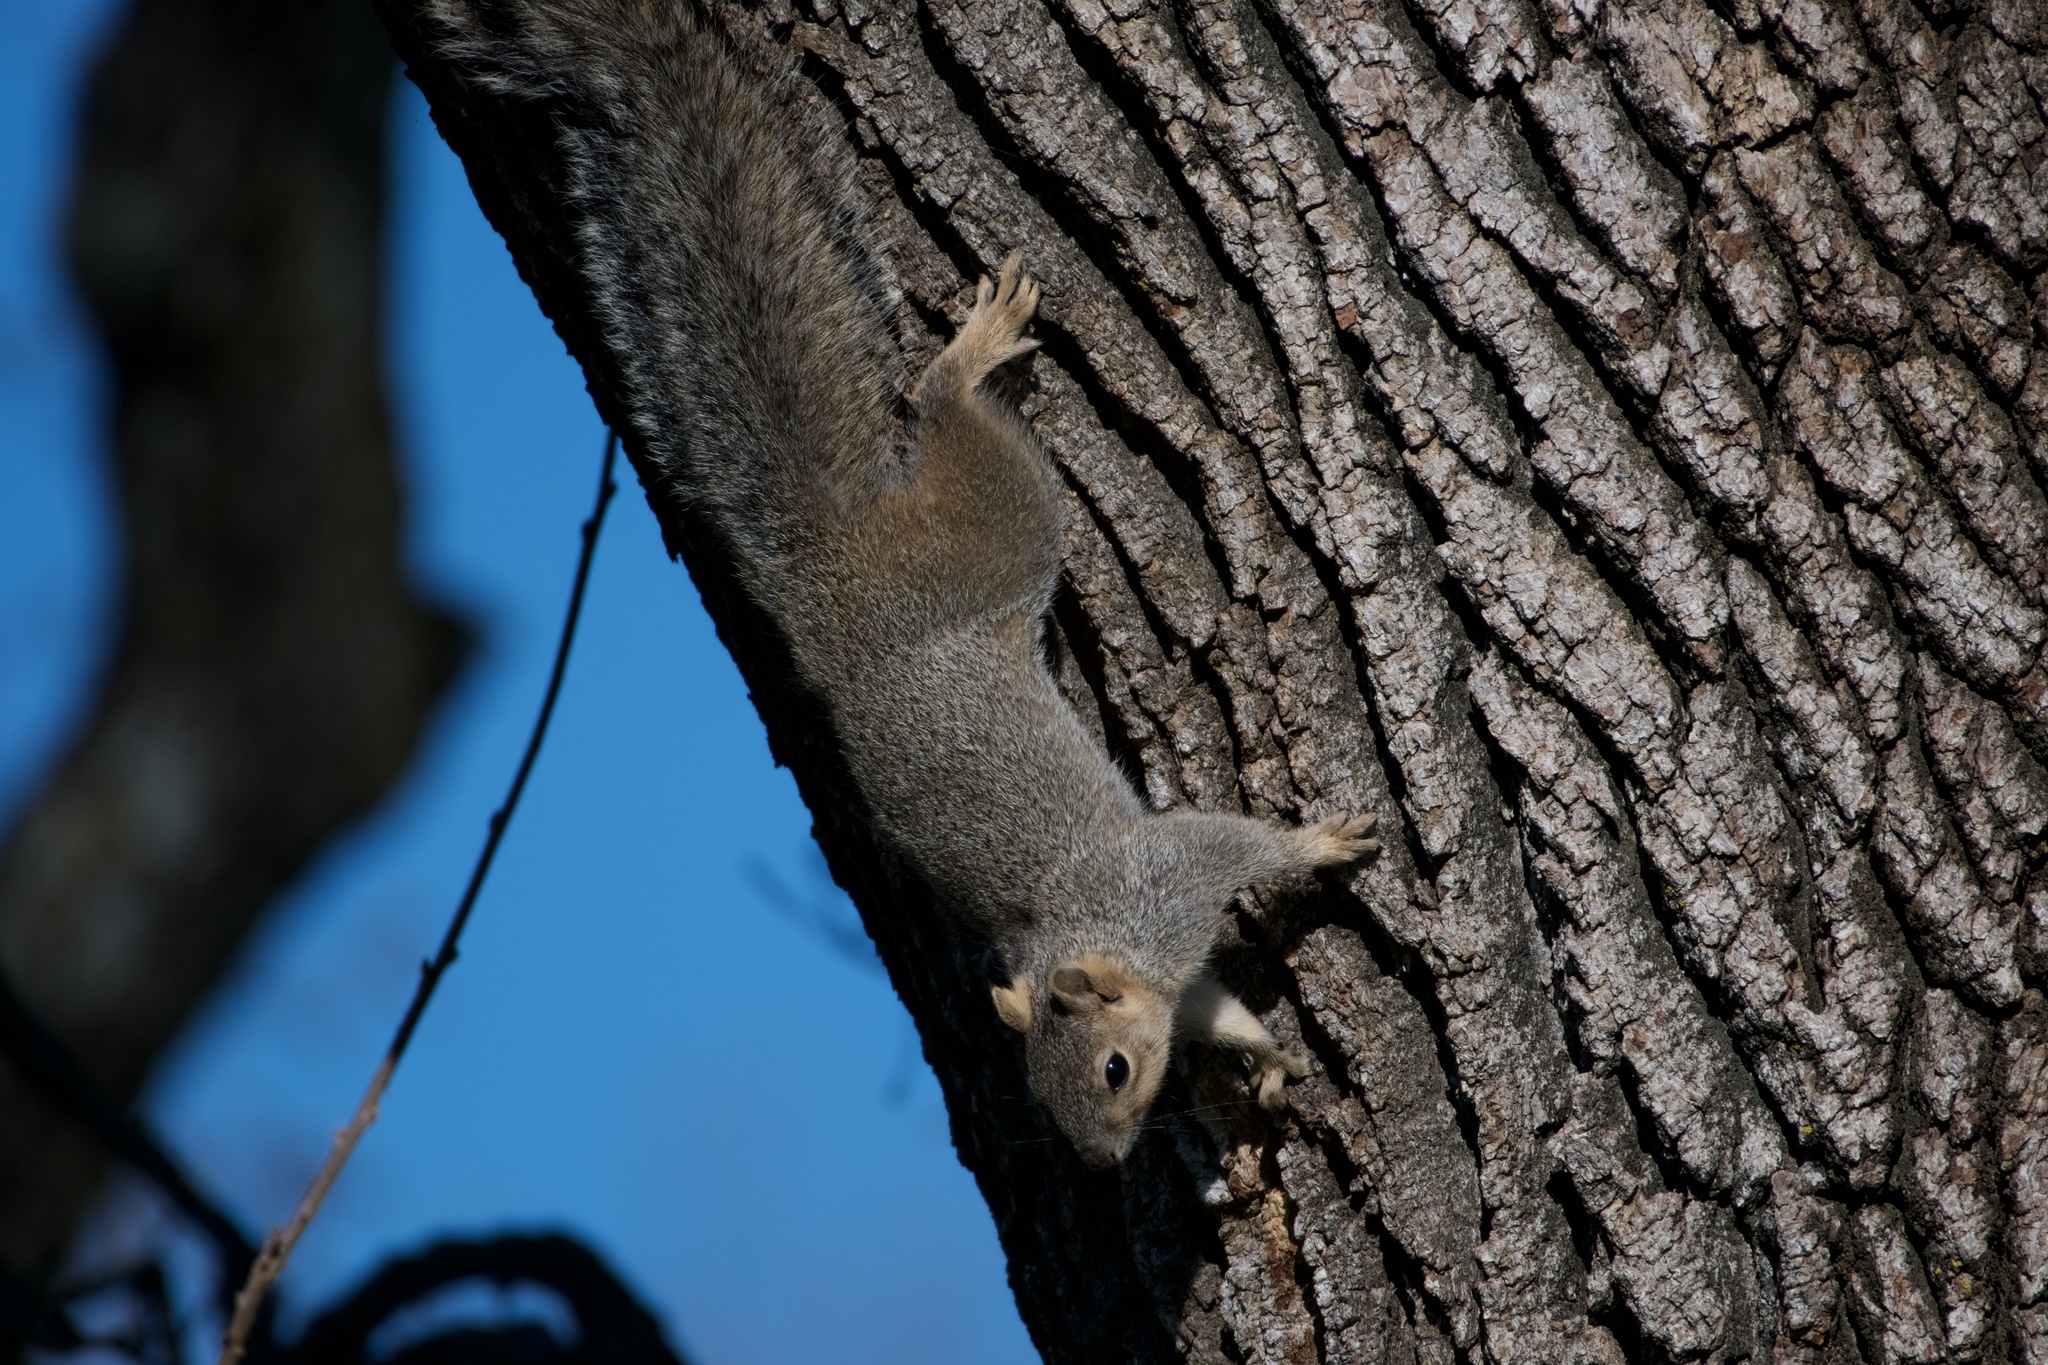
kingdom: Animalia
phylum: Chordata
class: Mammalia
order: Rodentia
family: Sciuridae
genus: Sciurus
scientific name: Sciurus niger
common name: Fox squirrel
